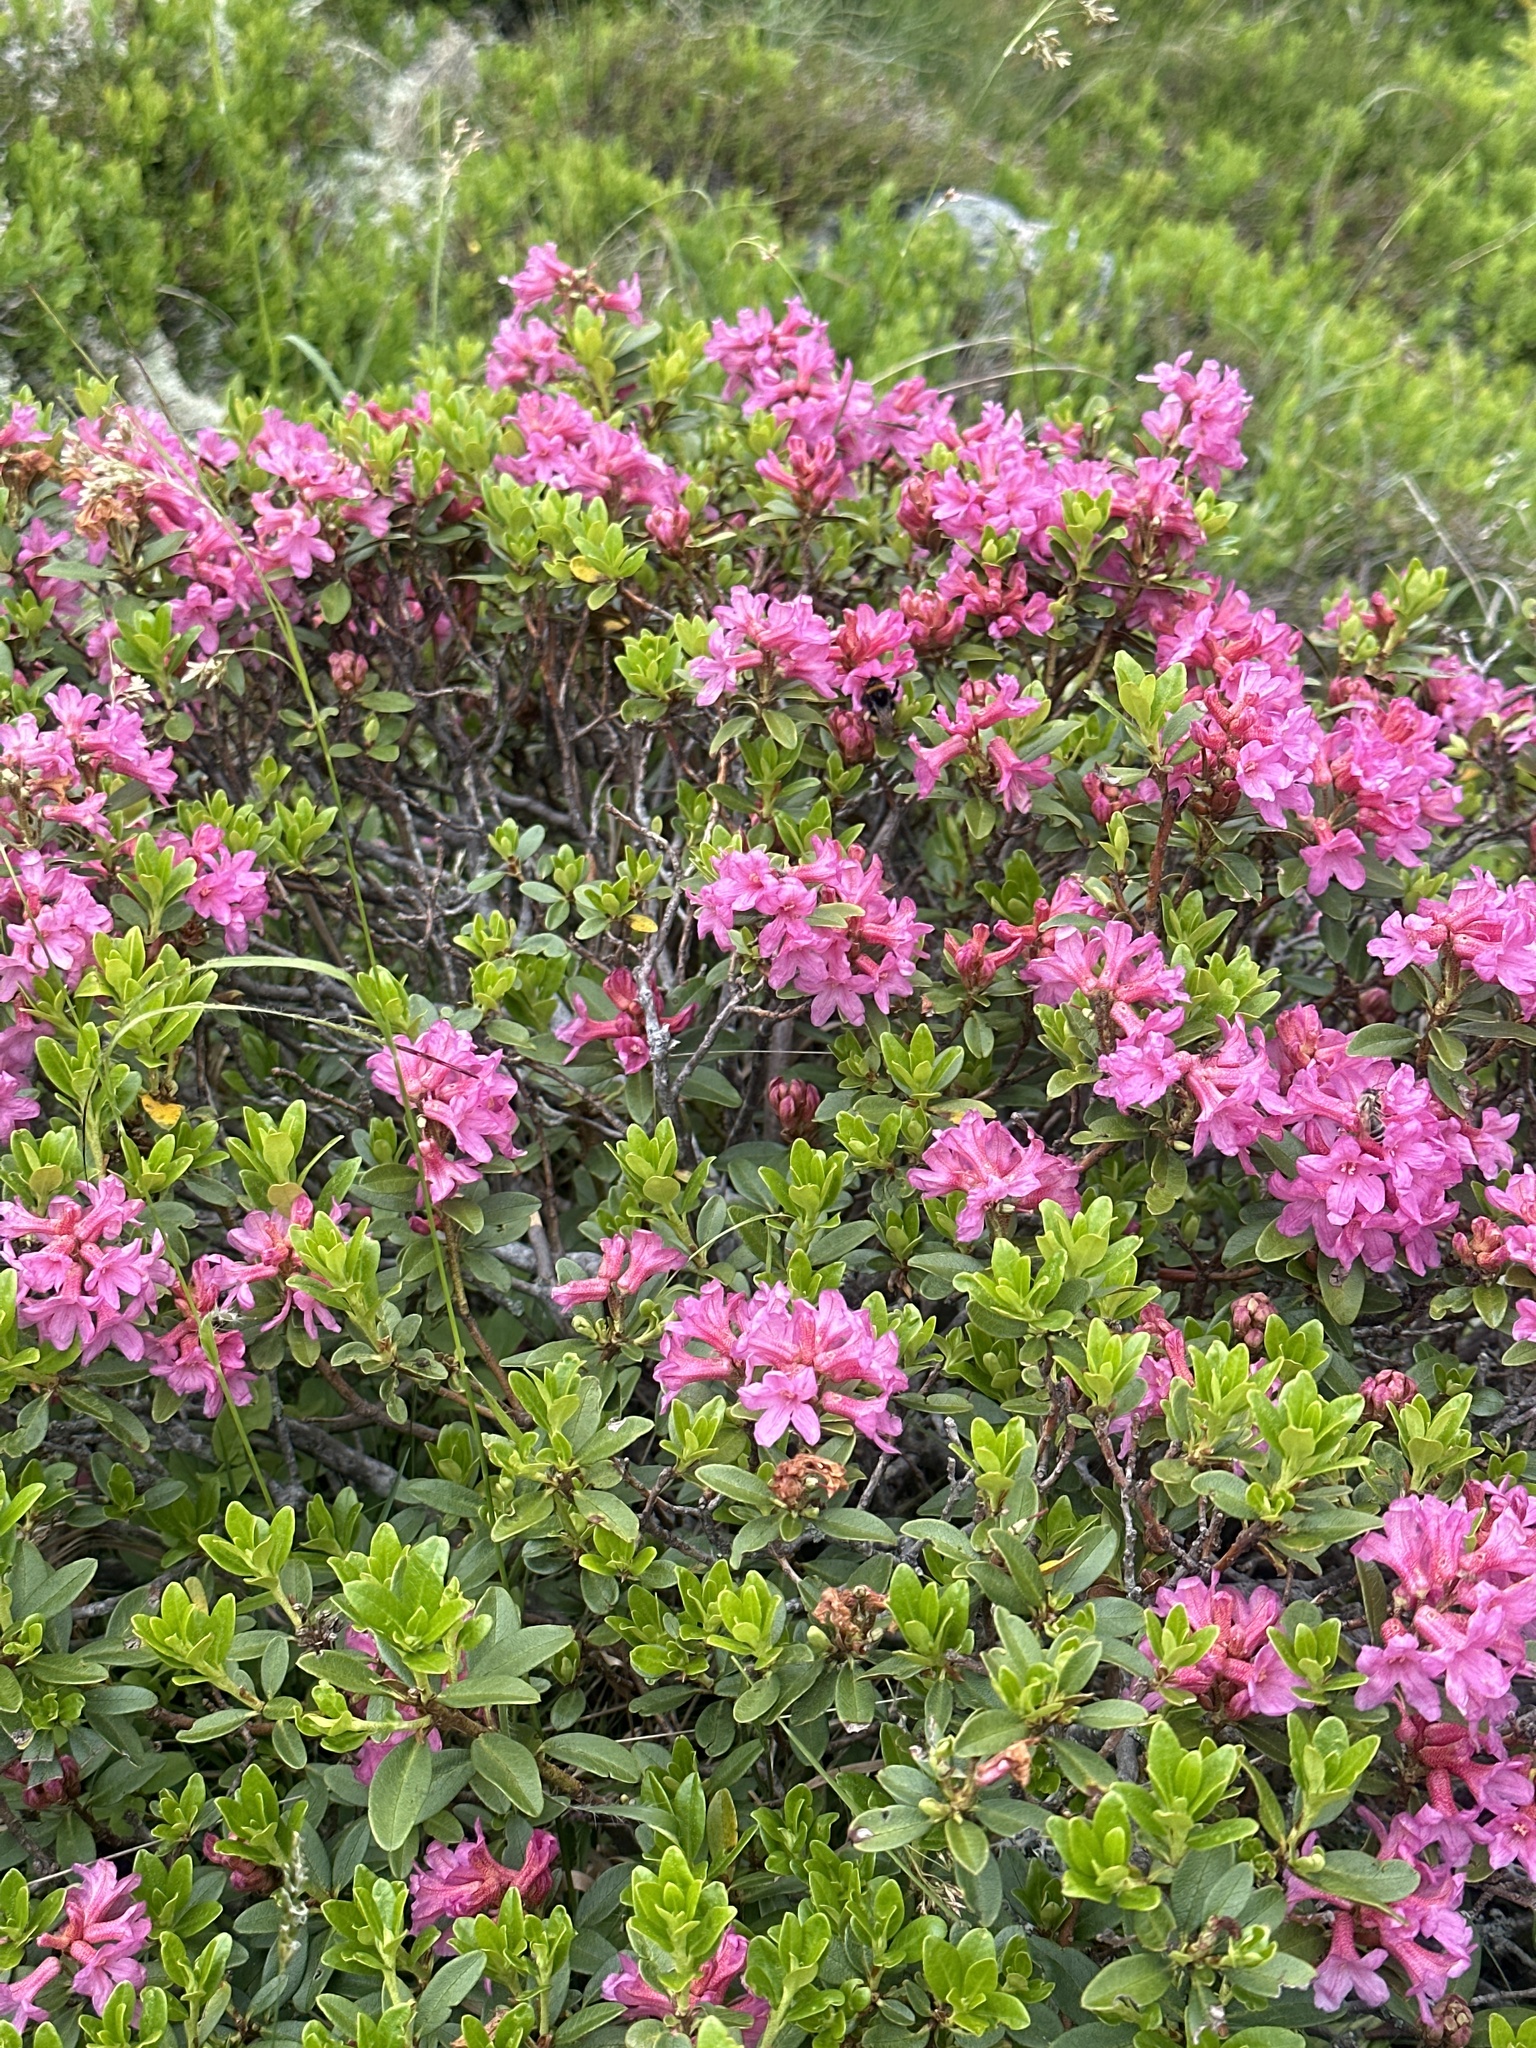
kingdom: Plantae
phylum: Tracheophyta
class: Magnoliopsida
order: Ericales
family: Ericaceae
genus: Rhododendron
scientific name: Rhododendron ferrugineum
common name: Alpenrose
